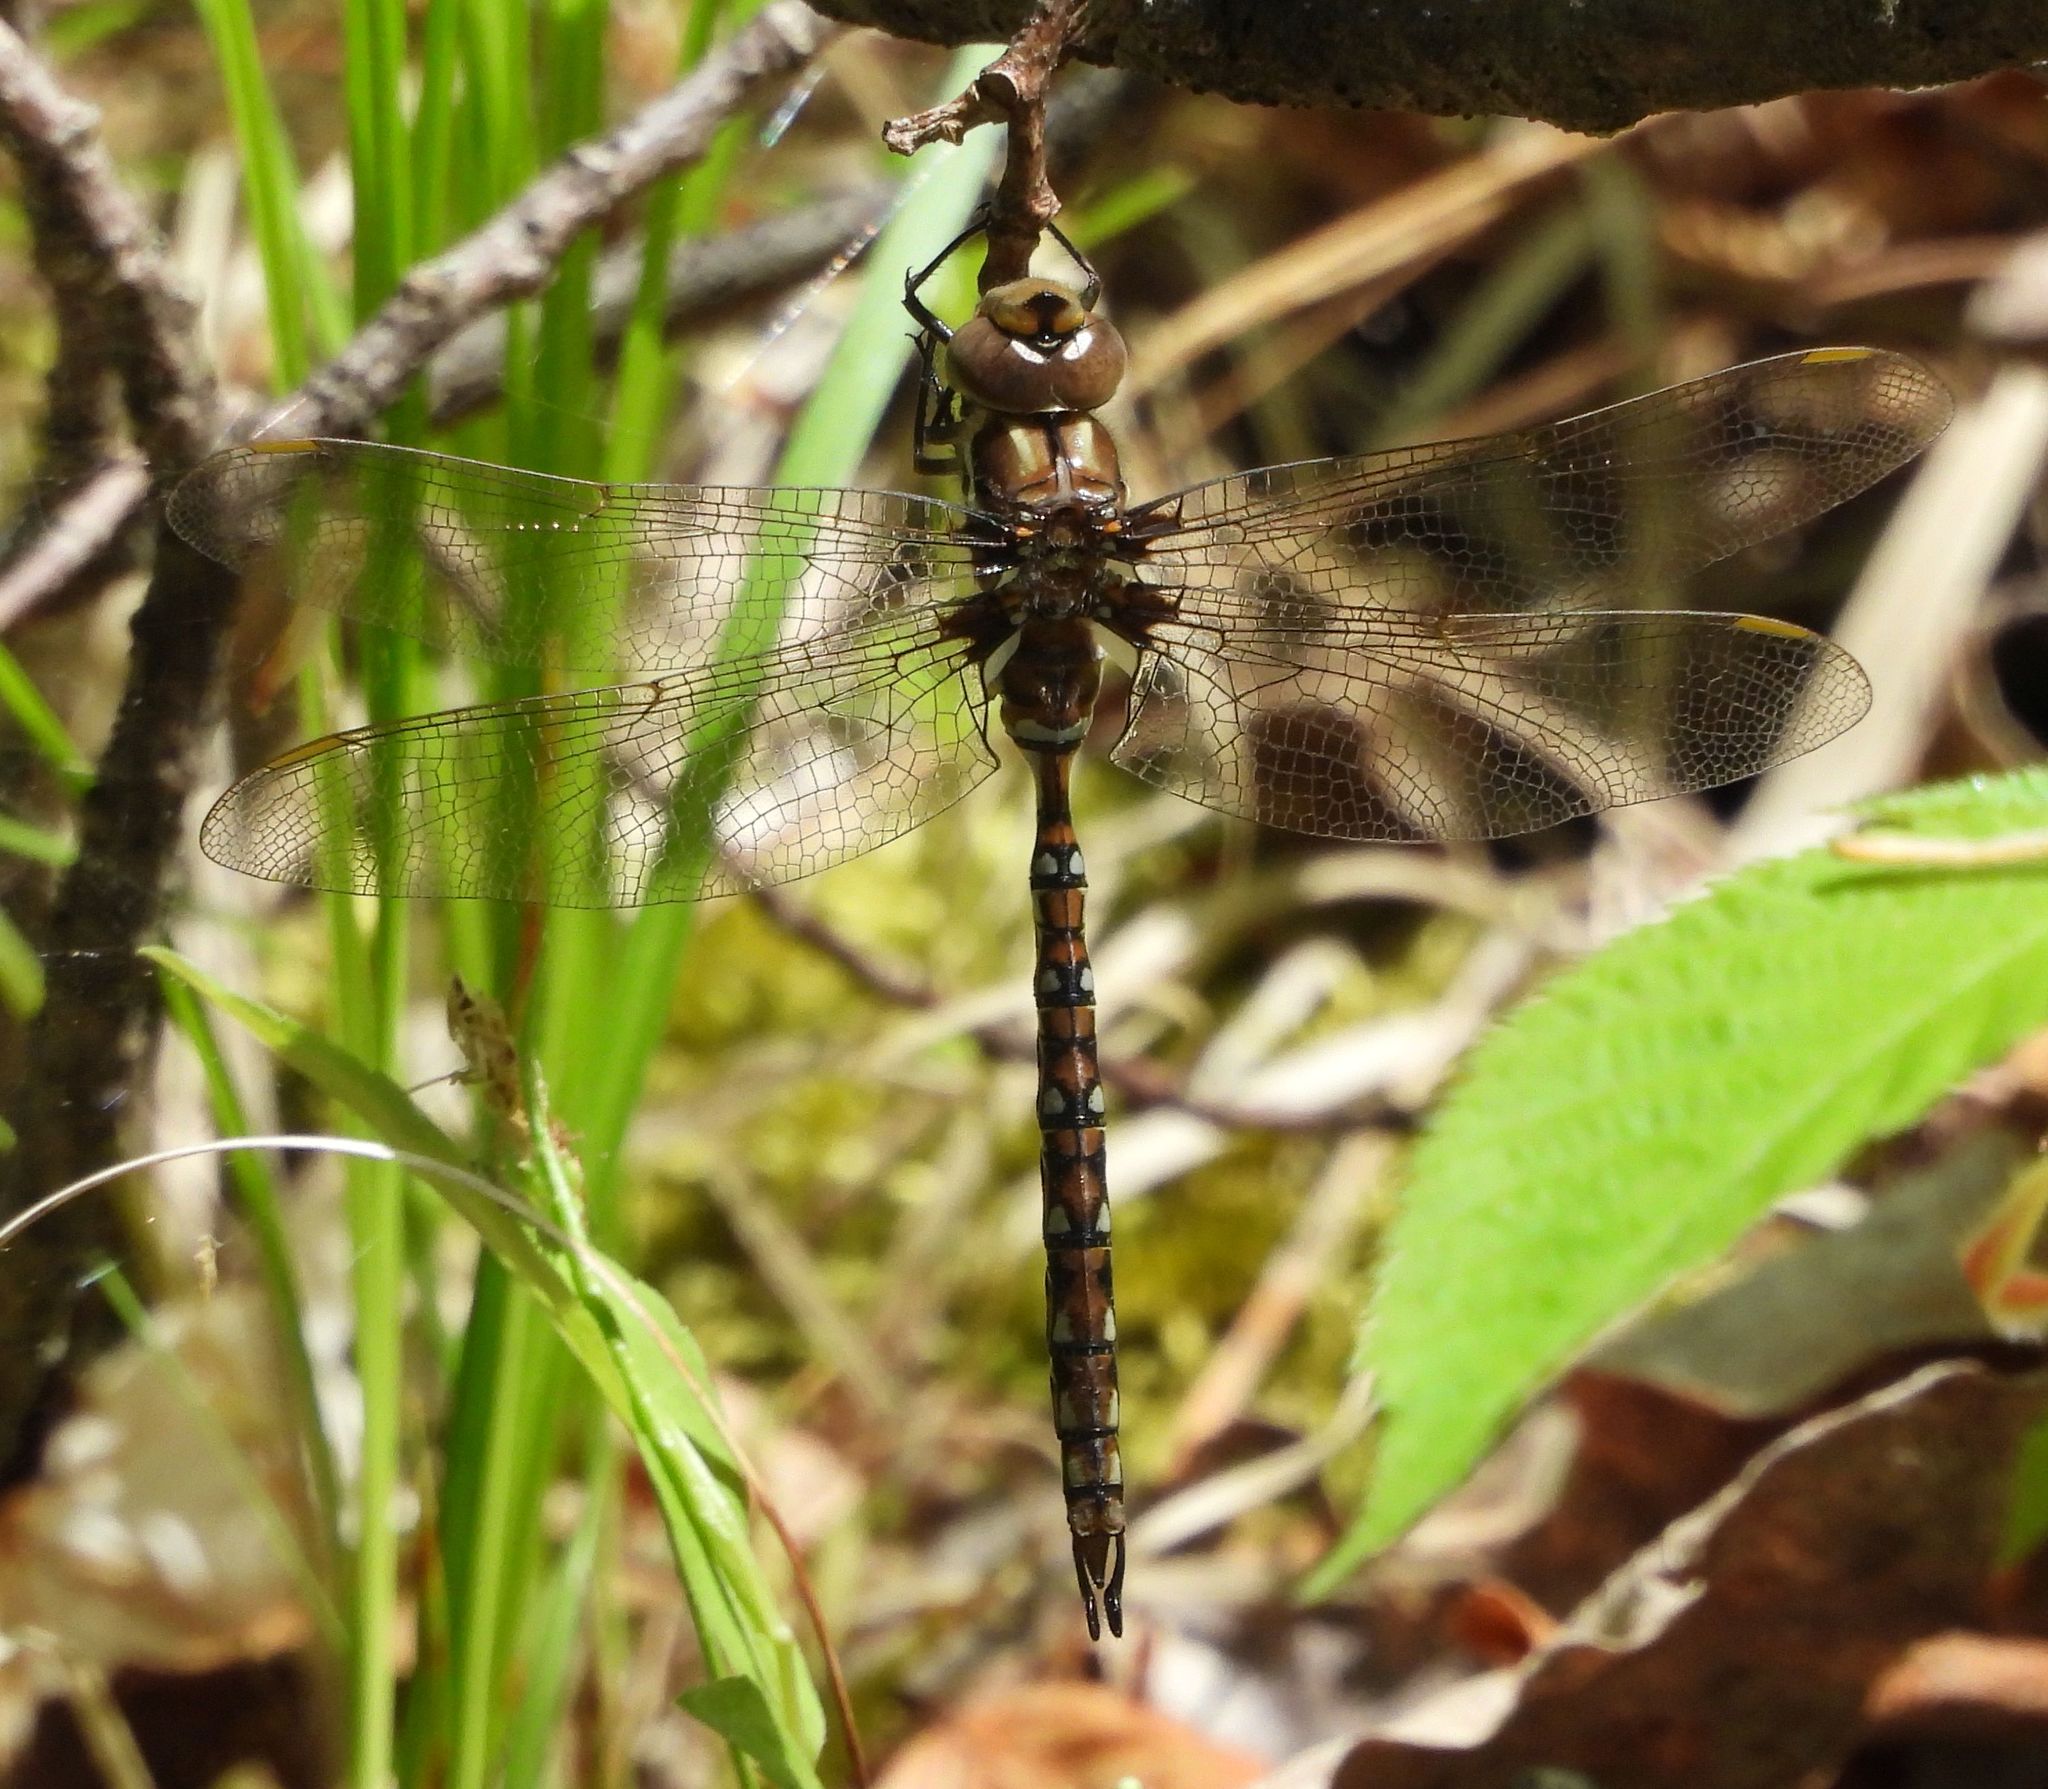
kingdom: Animalia
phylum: Arthropoda
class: Insecta
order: Odonata
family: Aeshnidae
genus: Basiaeschna
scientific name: Basiaeschna janata
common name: Springtime darner
